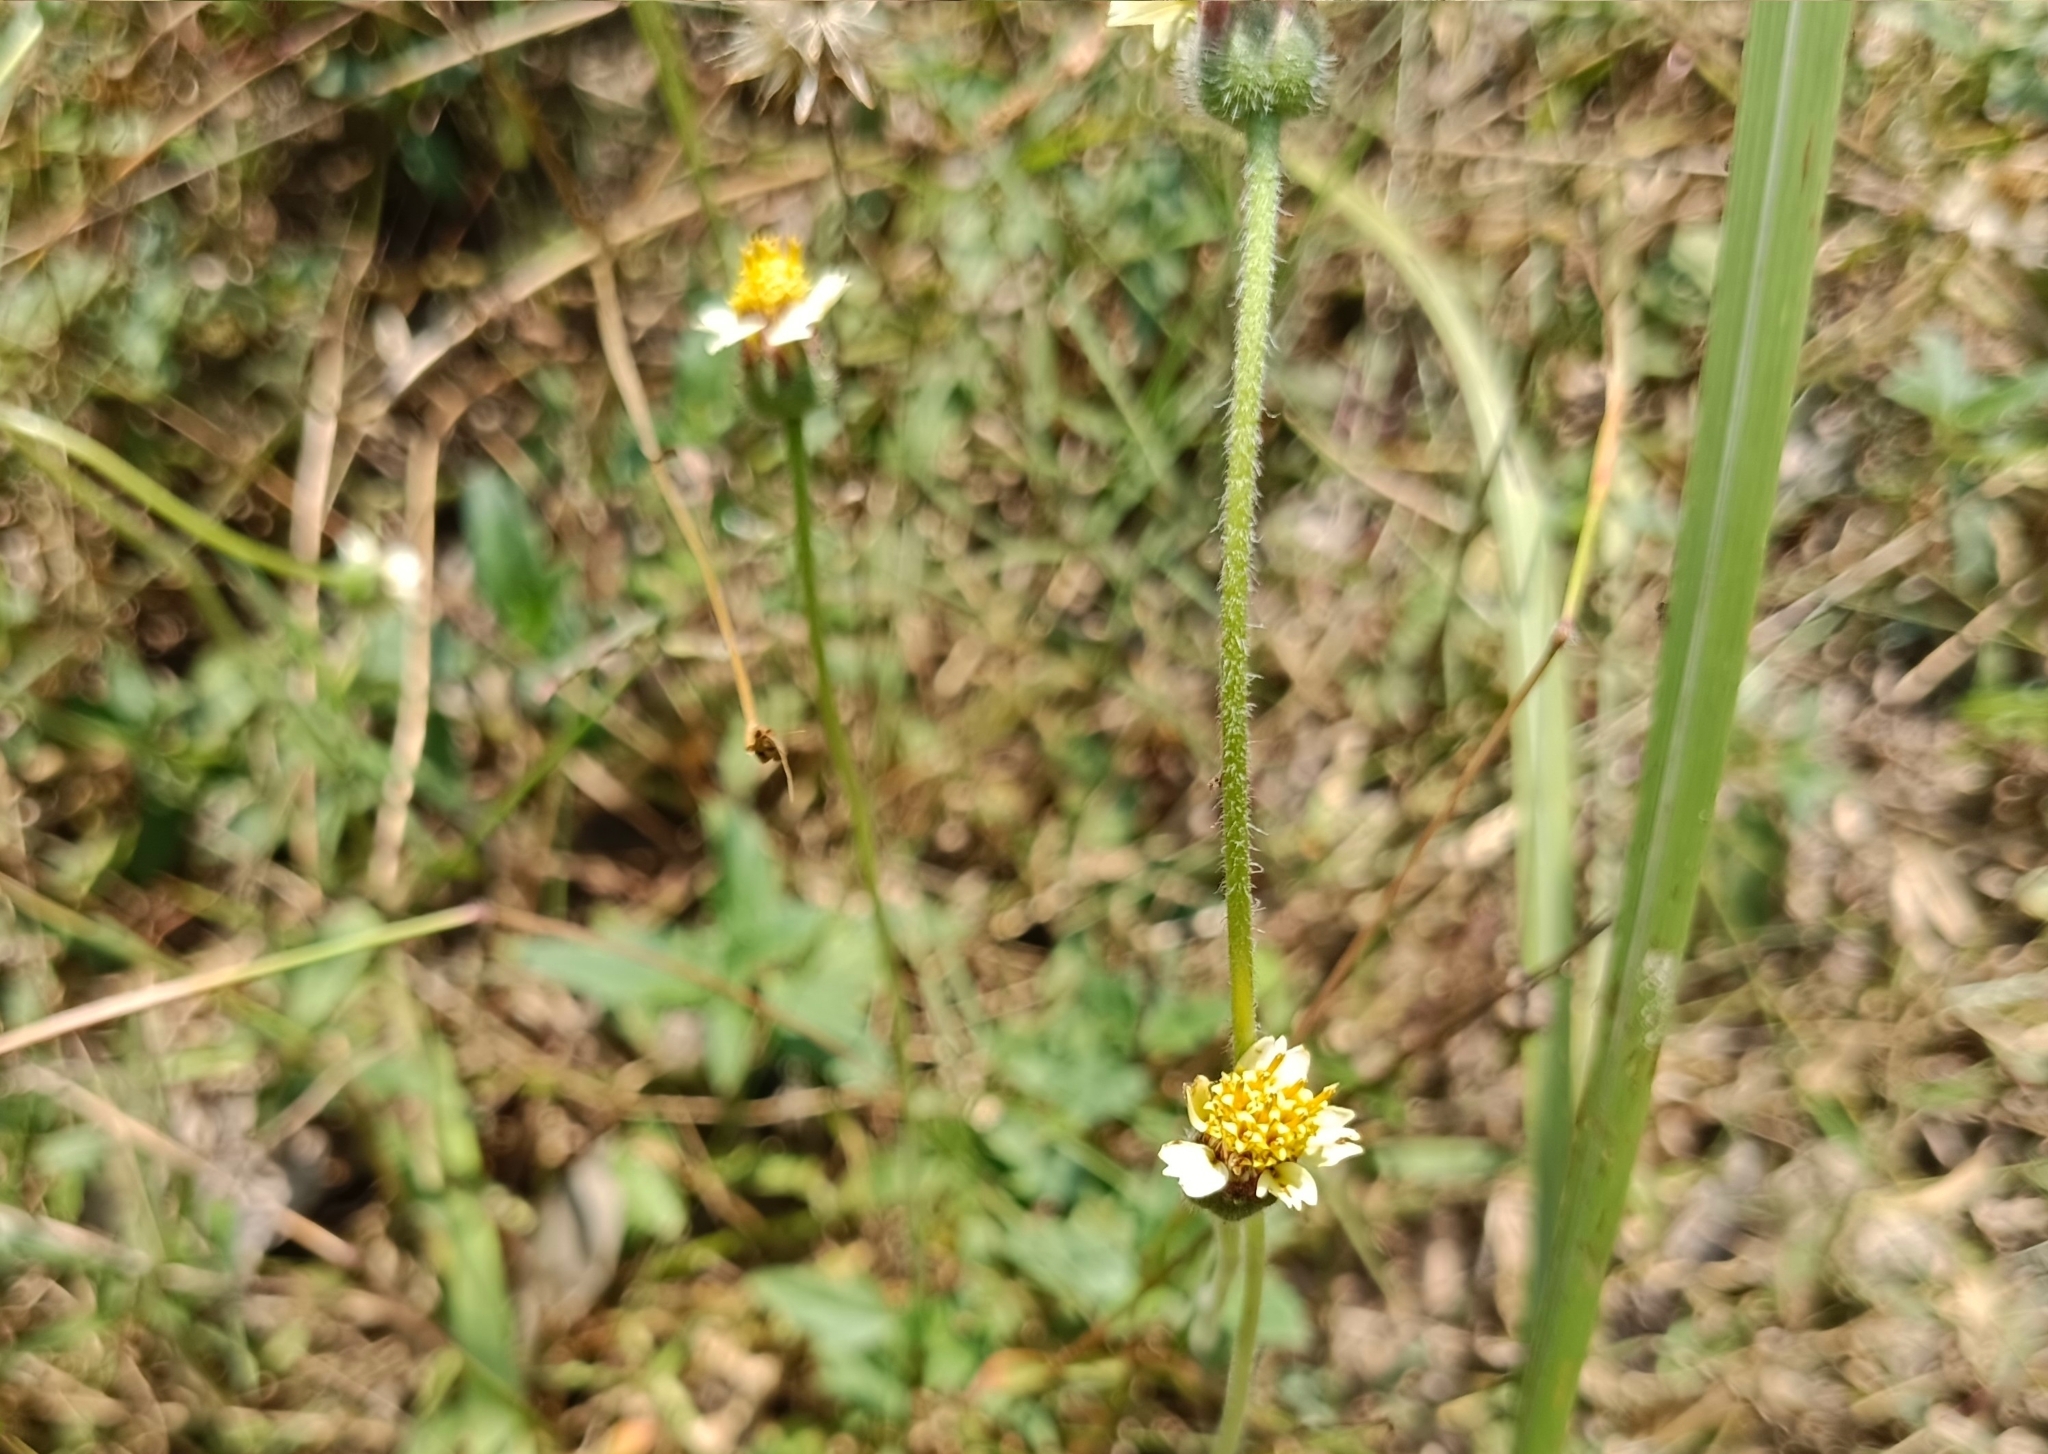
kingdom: Plantae
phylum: Tracheophyta
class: Magnoliopsida
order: Asterales
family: Asteraceae
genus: Tridax
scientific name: Tridax procumbens
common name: Coatbuttons
